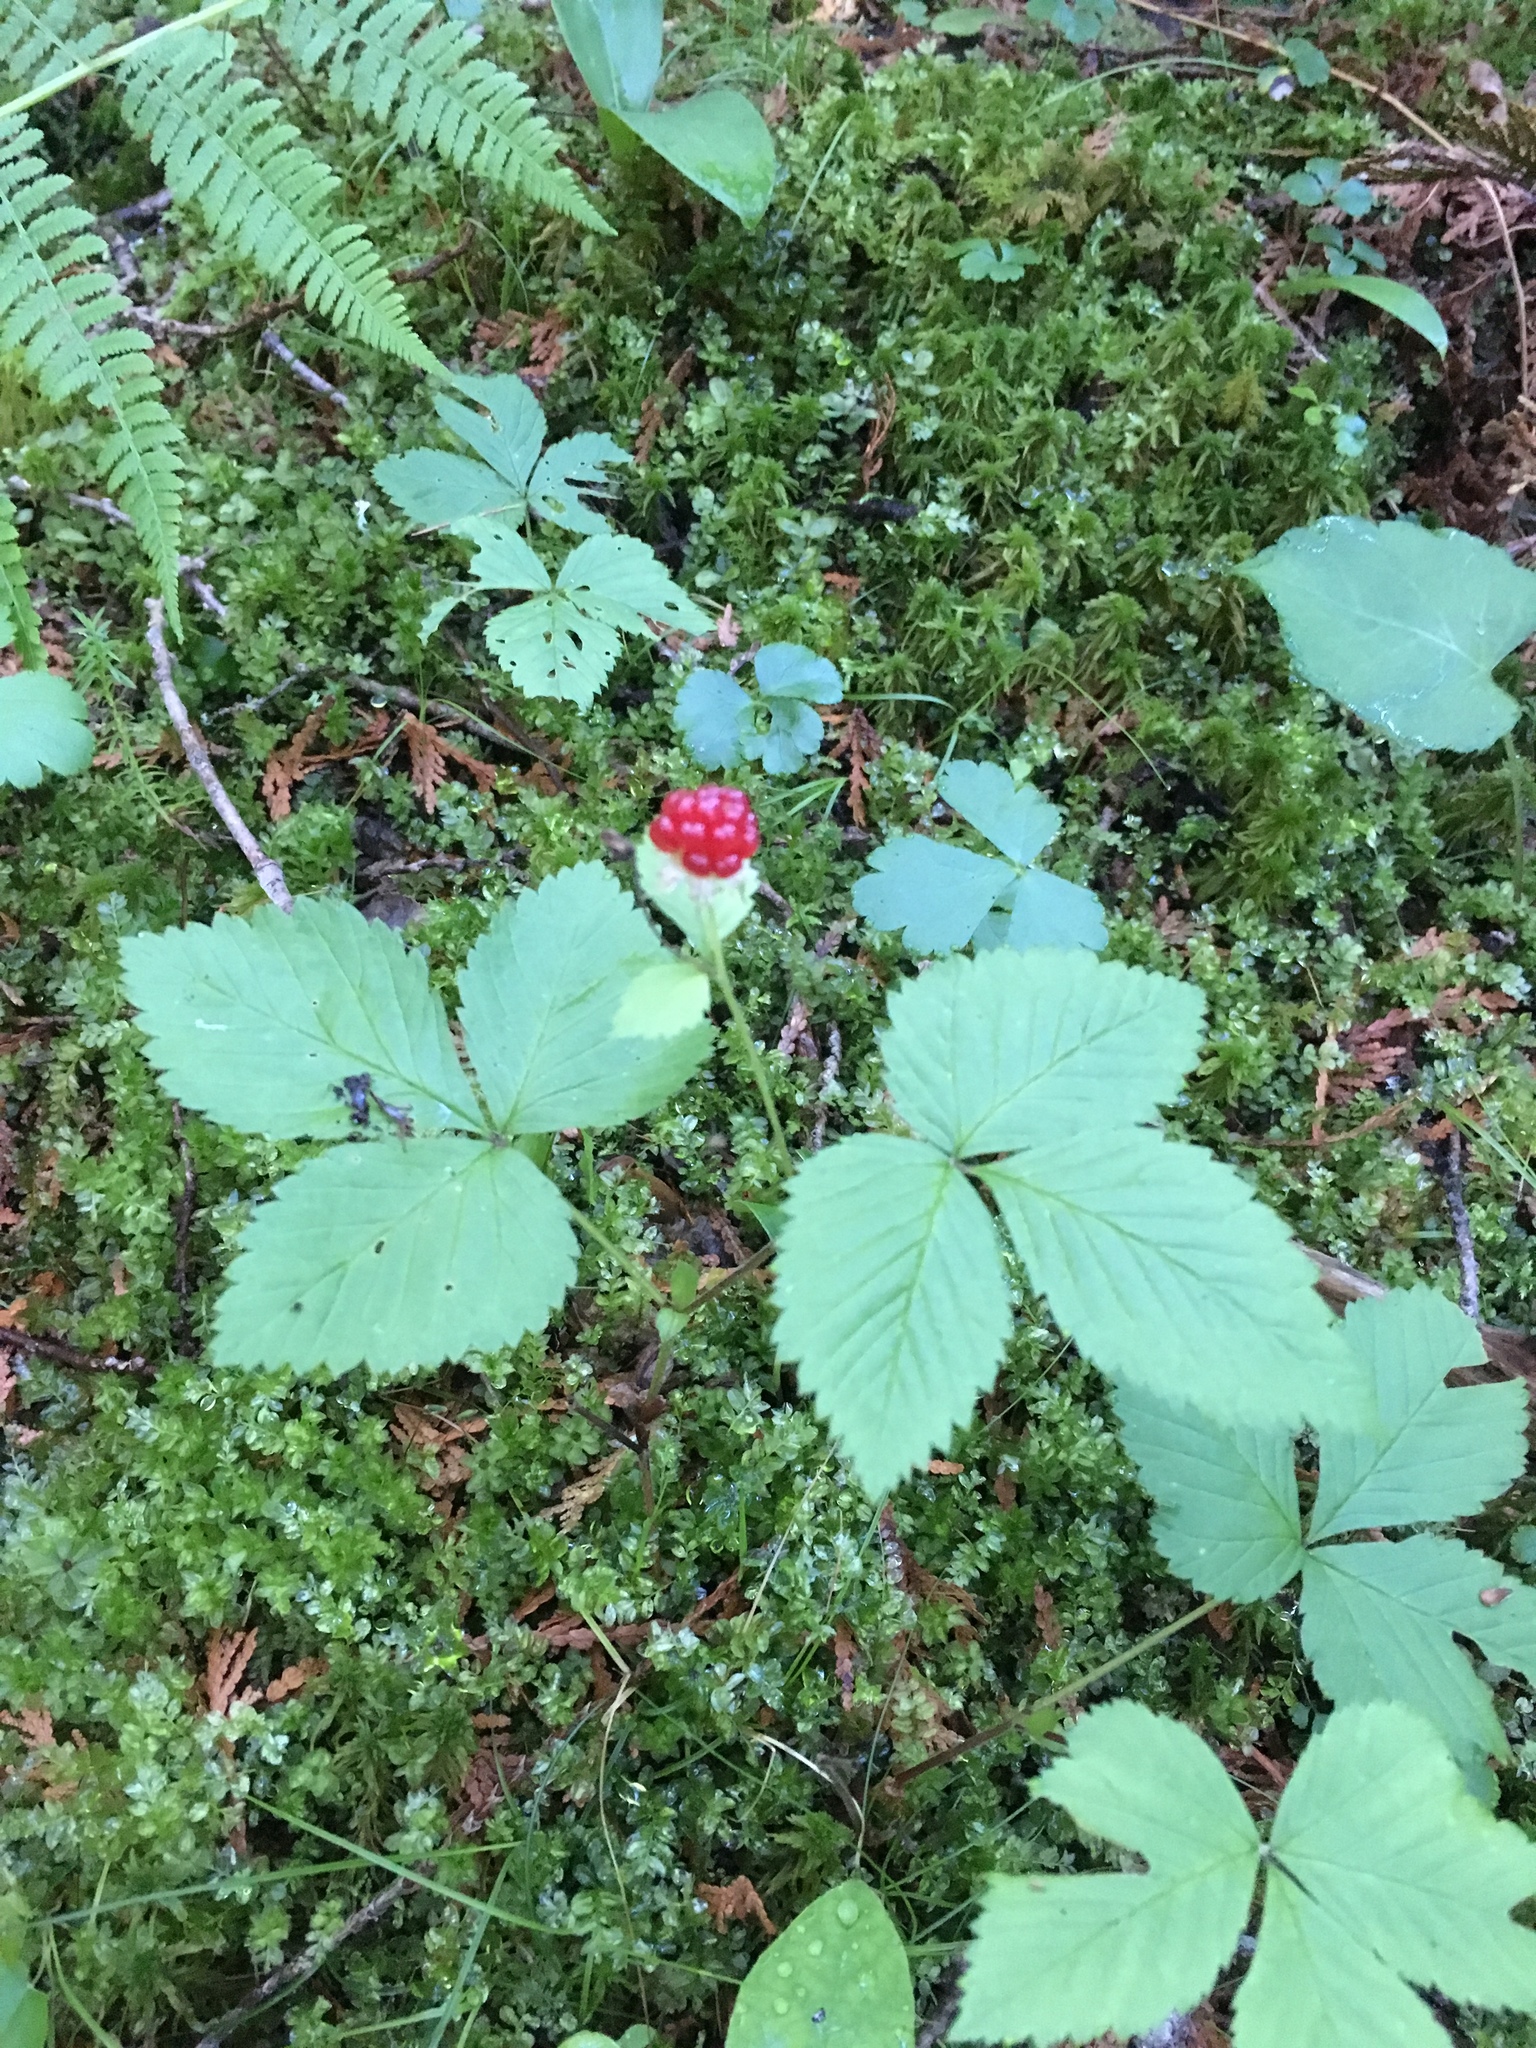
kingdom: Plantae
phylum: Tracheophyta
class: Magnoliopsida
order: Rosales
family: Rosaceae
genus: Rubus
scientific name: Rubus pubescens
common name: Dwarf raspberry
